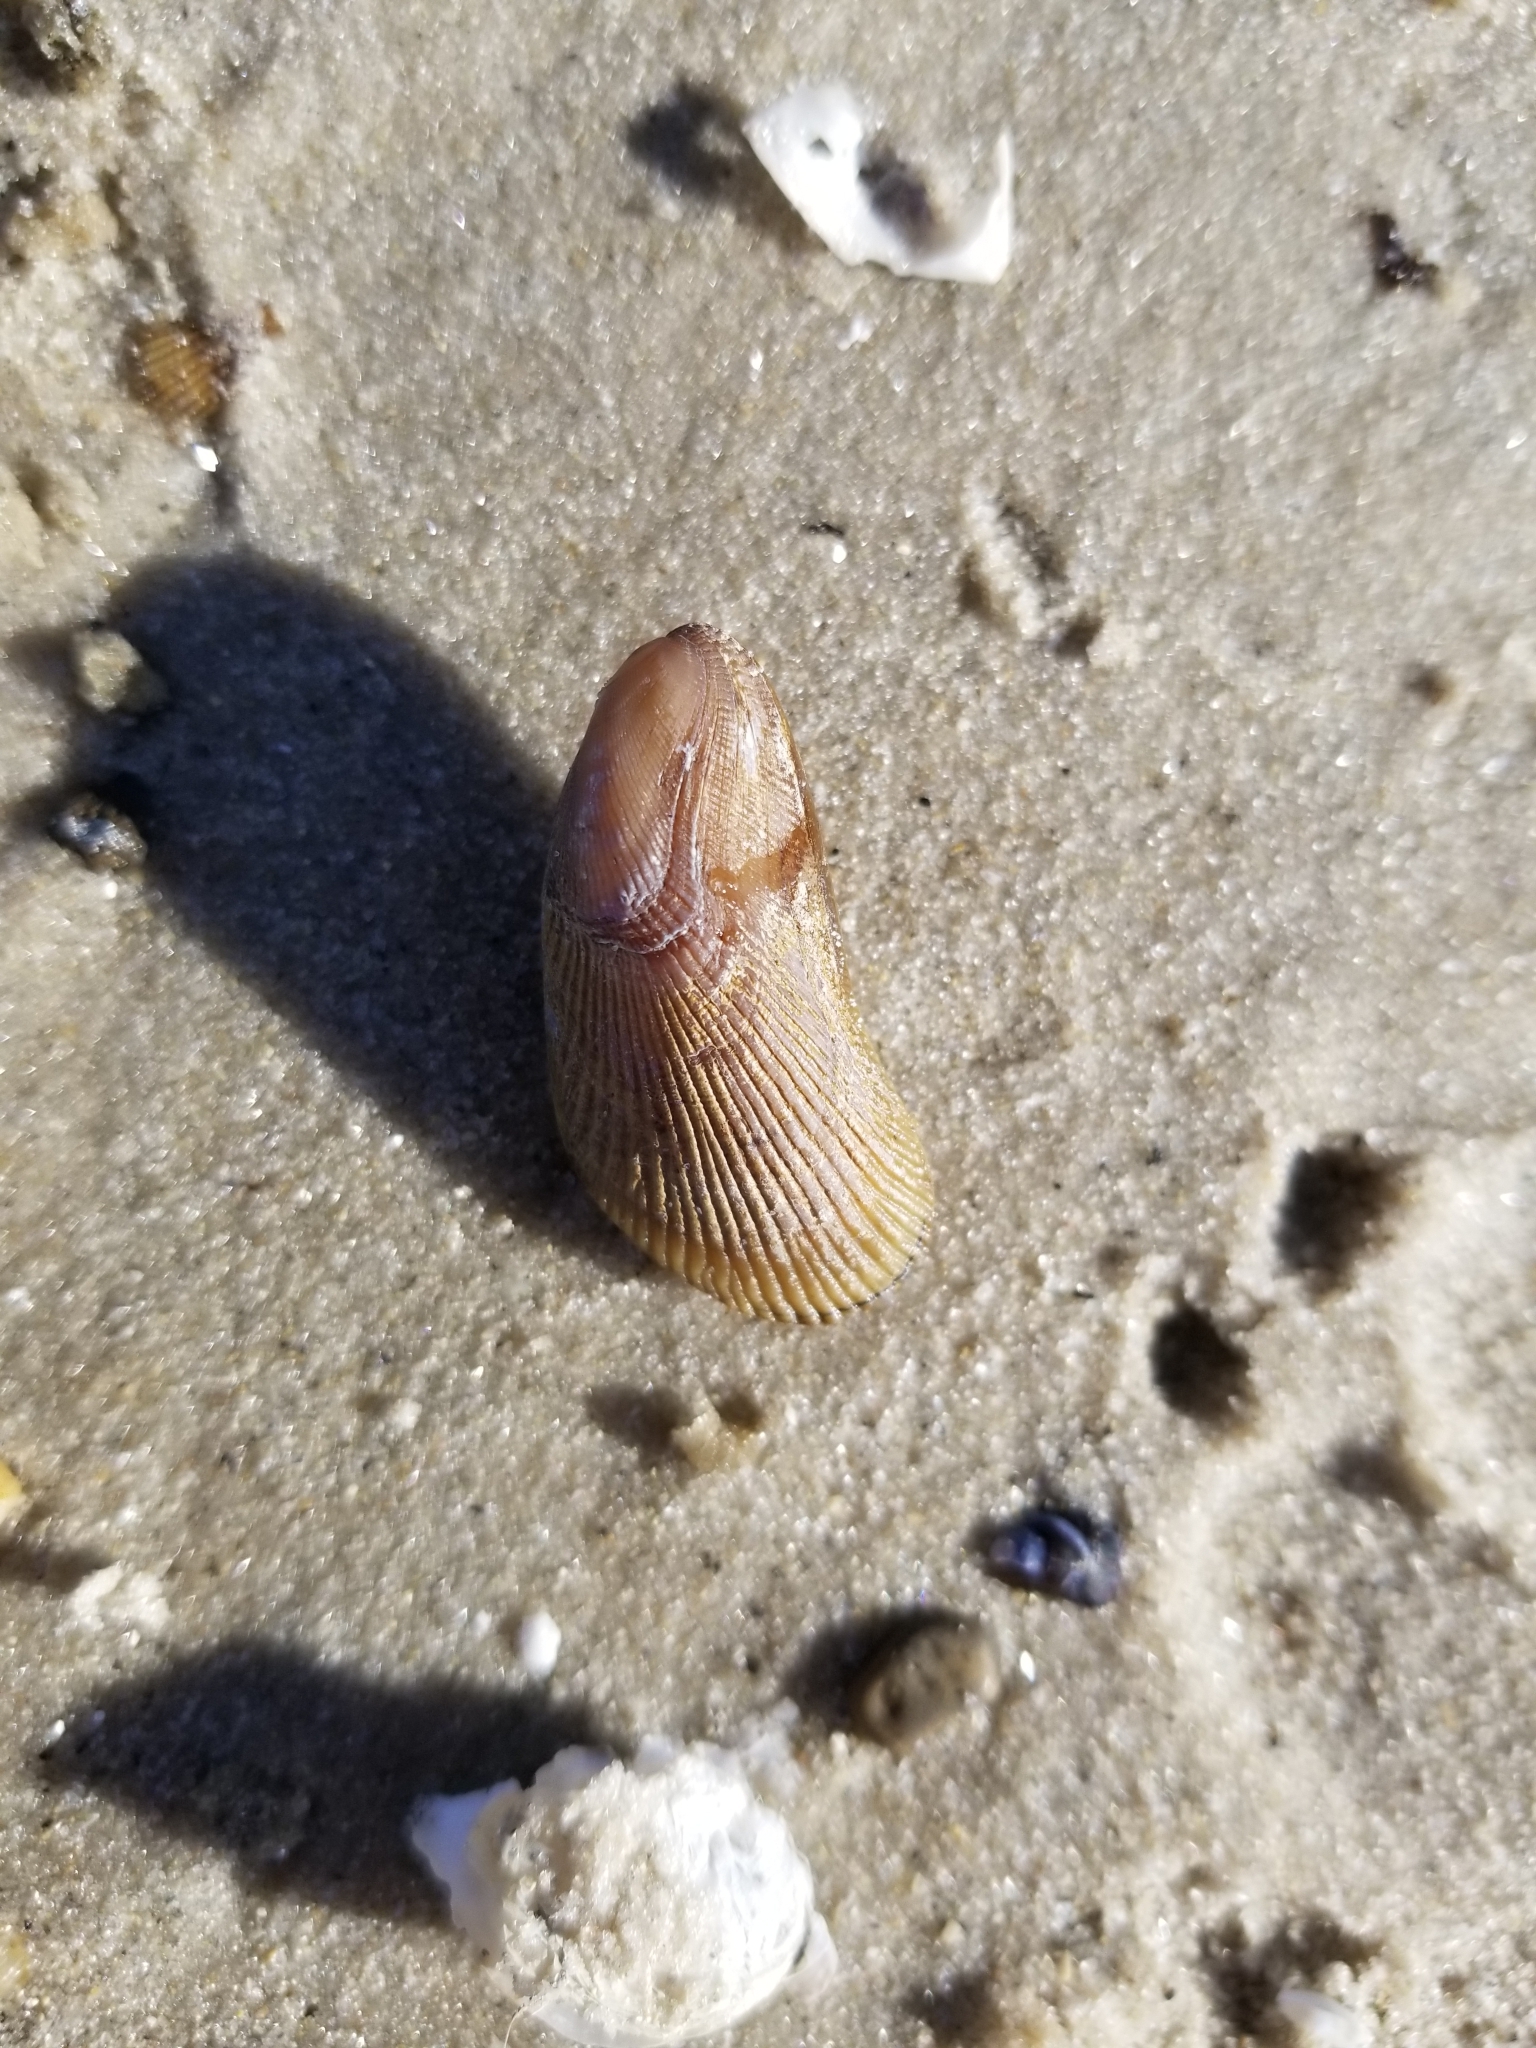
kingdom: Animalia
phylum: Mollusca
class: Bivalvia
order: Mytilida
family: Mytilidae
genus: Geukensia
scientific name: Geukensia demissa
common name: Ribbed mussel
